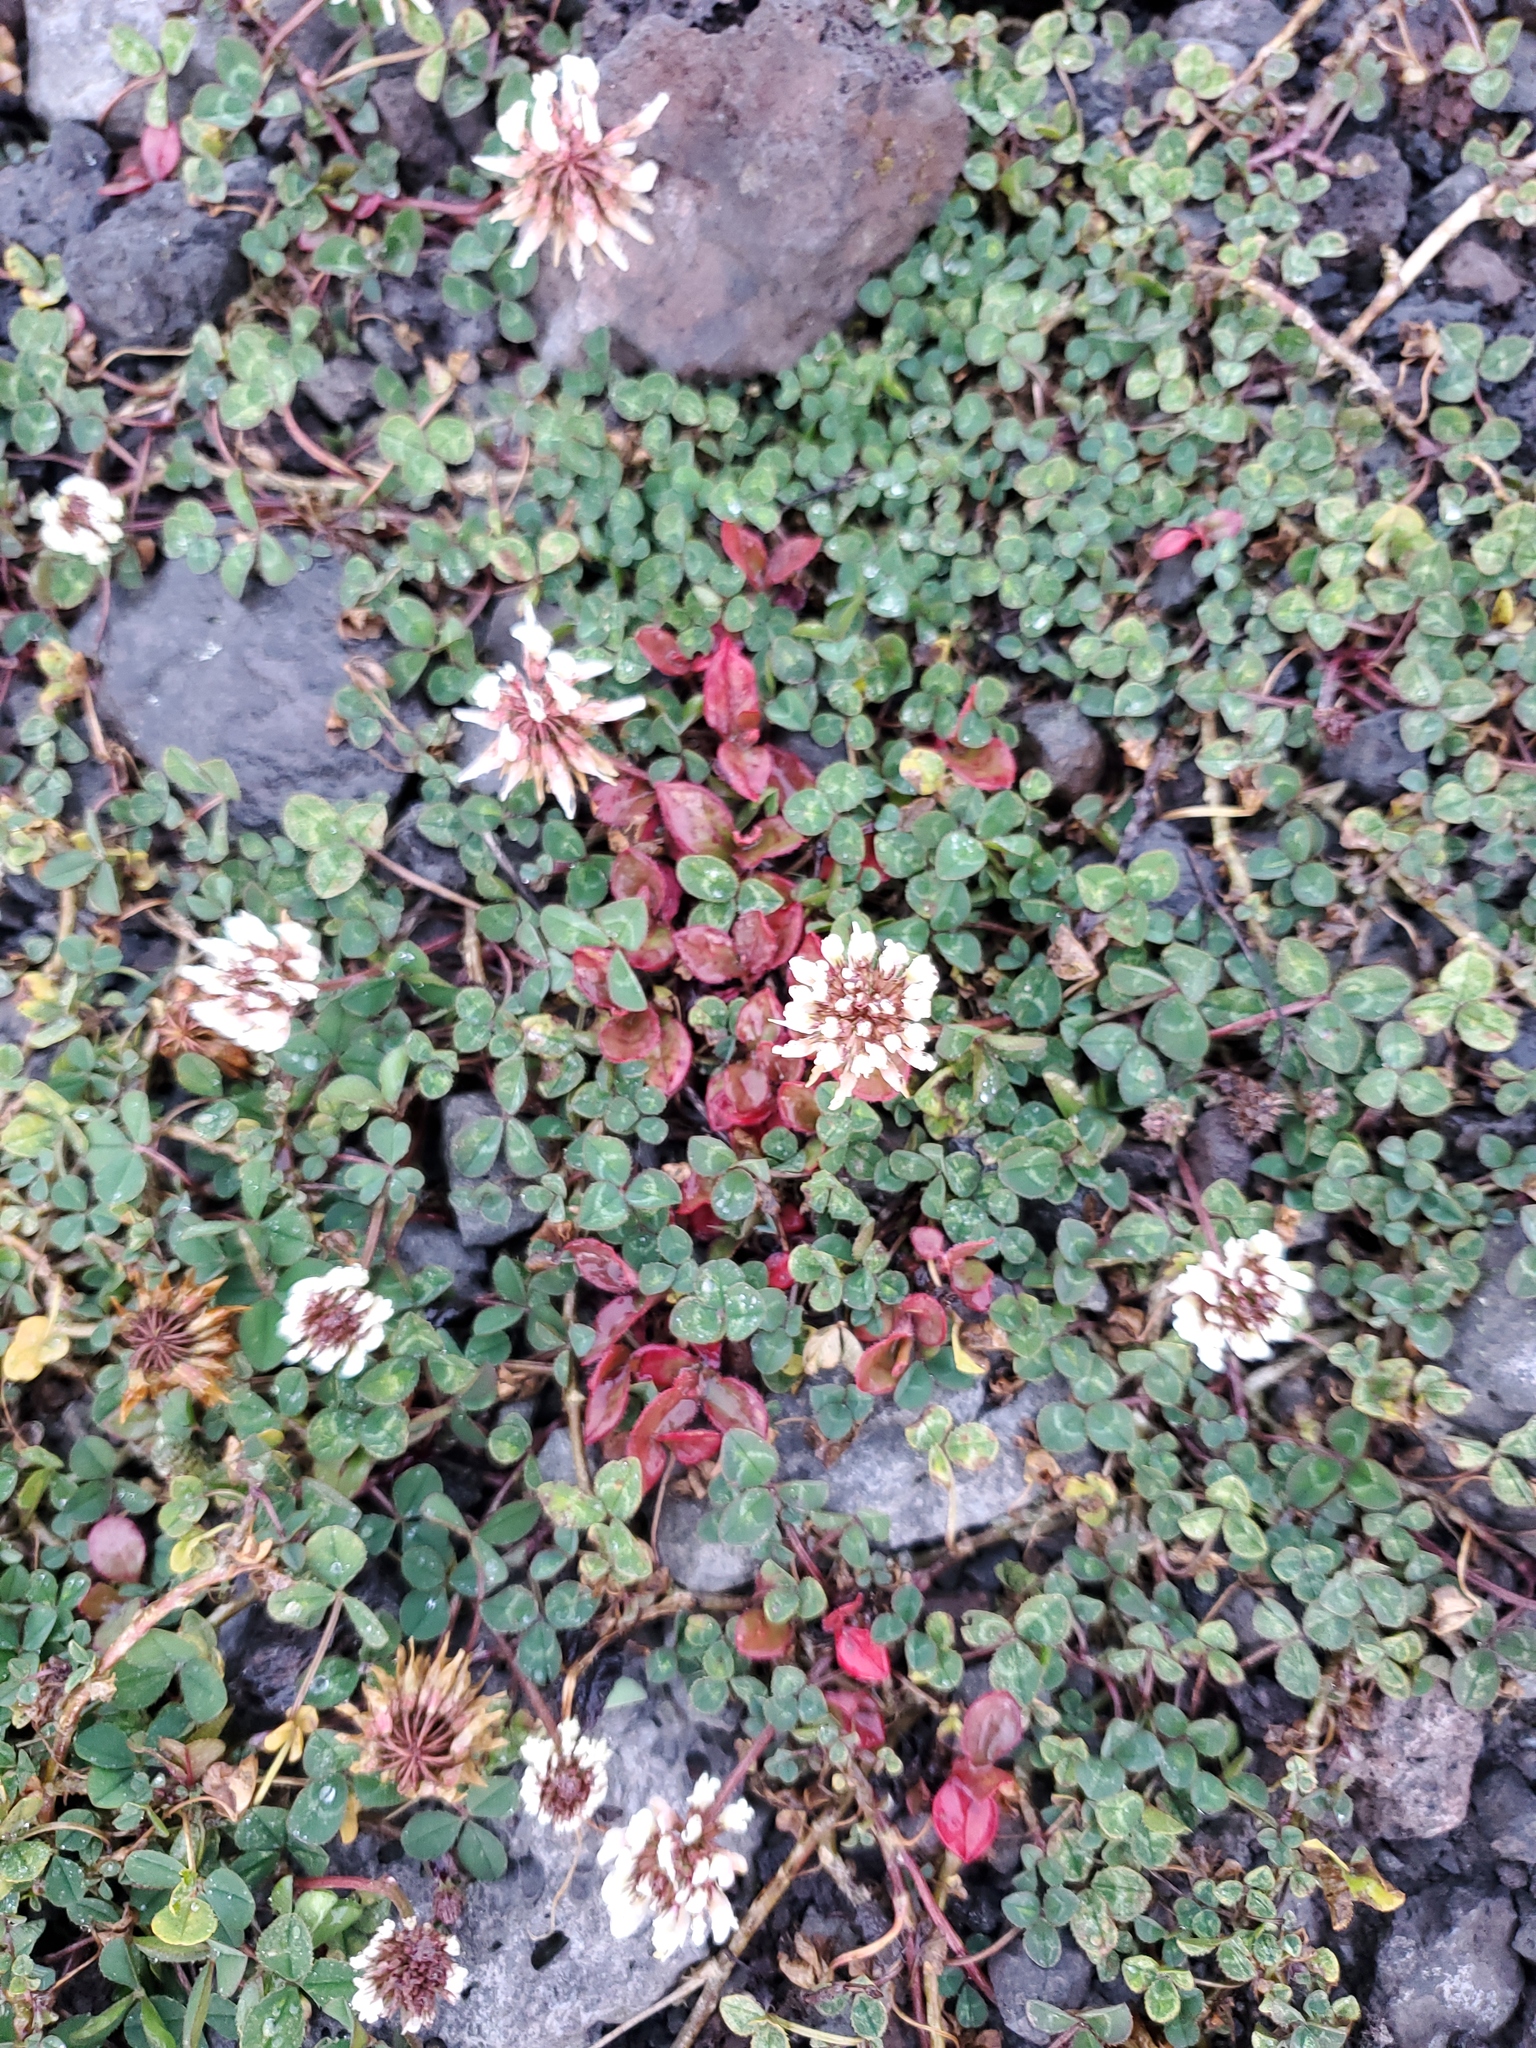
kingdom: Plantae
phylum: Tracheophyta
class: Magnoliopsida
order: Fabales
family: Fabaceae
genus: Trifolium
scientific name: Trifolium repens
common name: White clover
